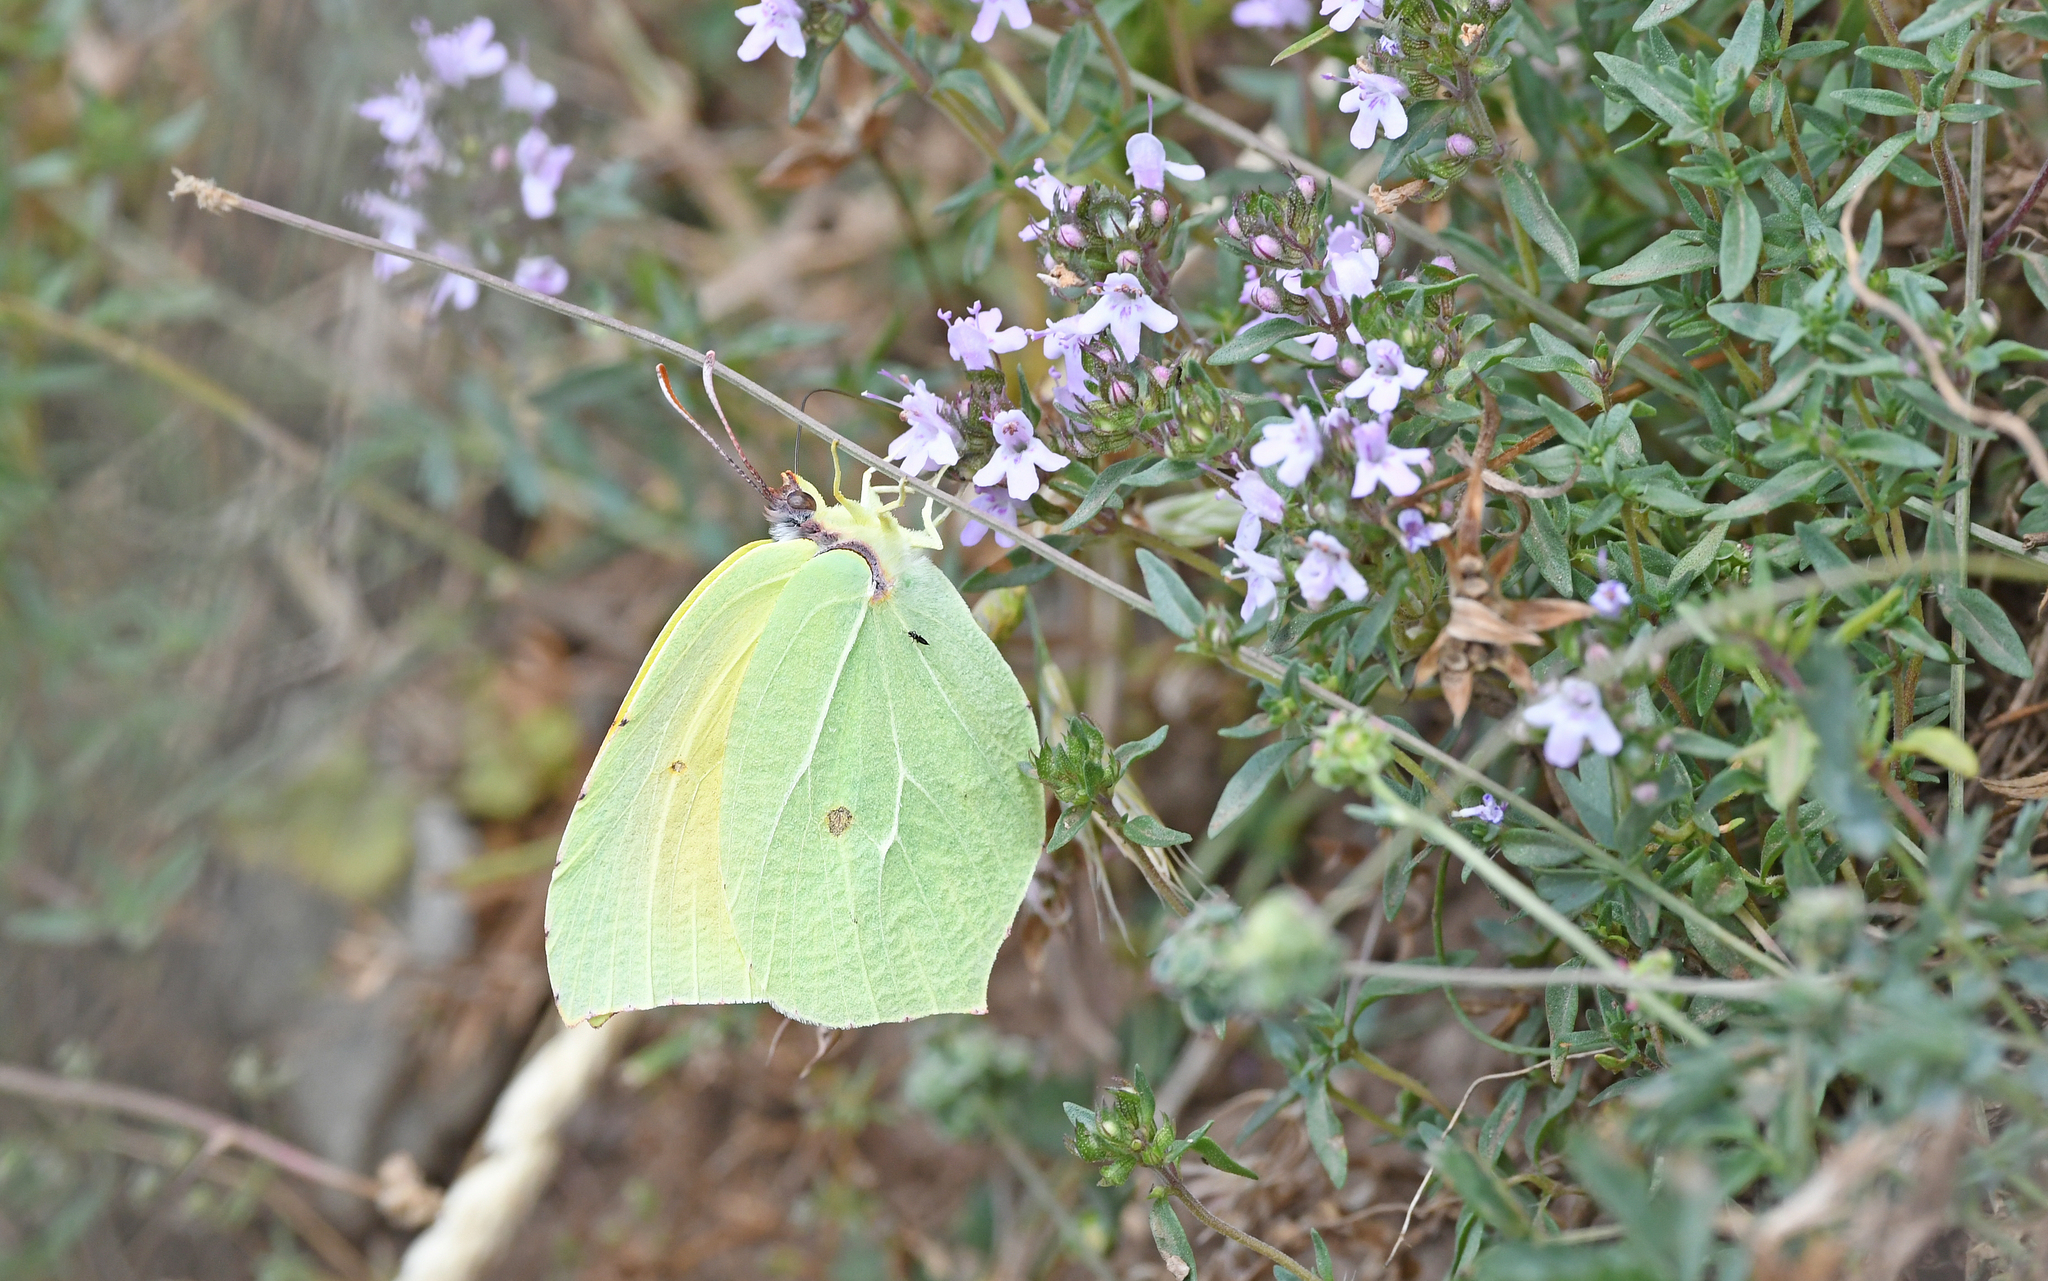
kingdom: Animalia
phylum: Arthropoda
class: Insecta
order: Lepidoptera
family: Pieridae
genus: Gonepteryx
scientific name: Gonepteryx cleopatra
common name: Cleopatra
